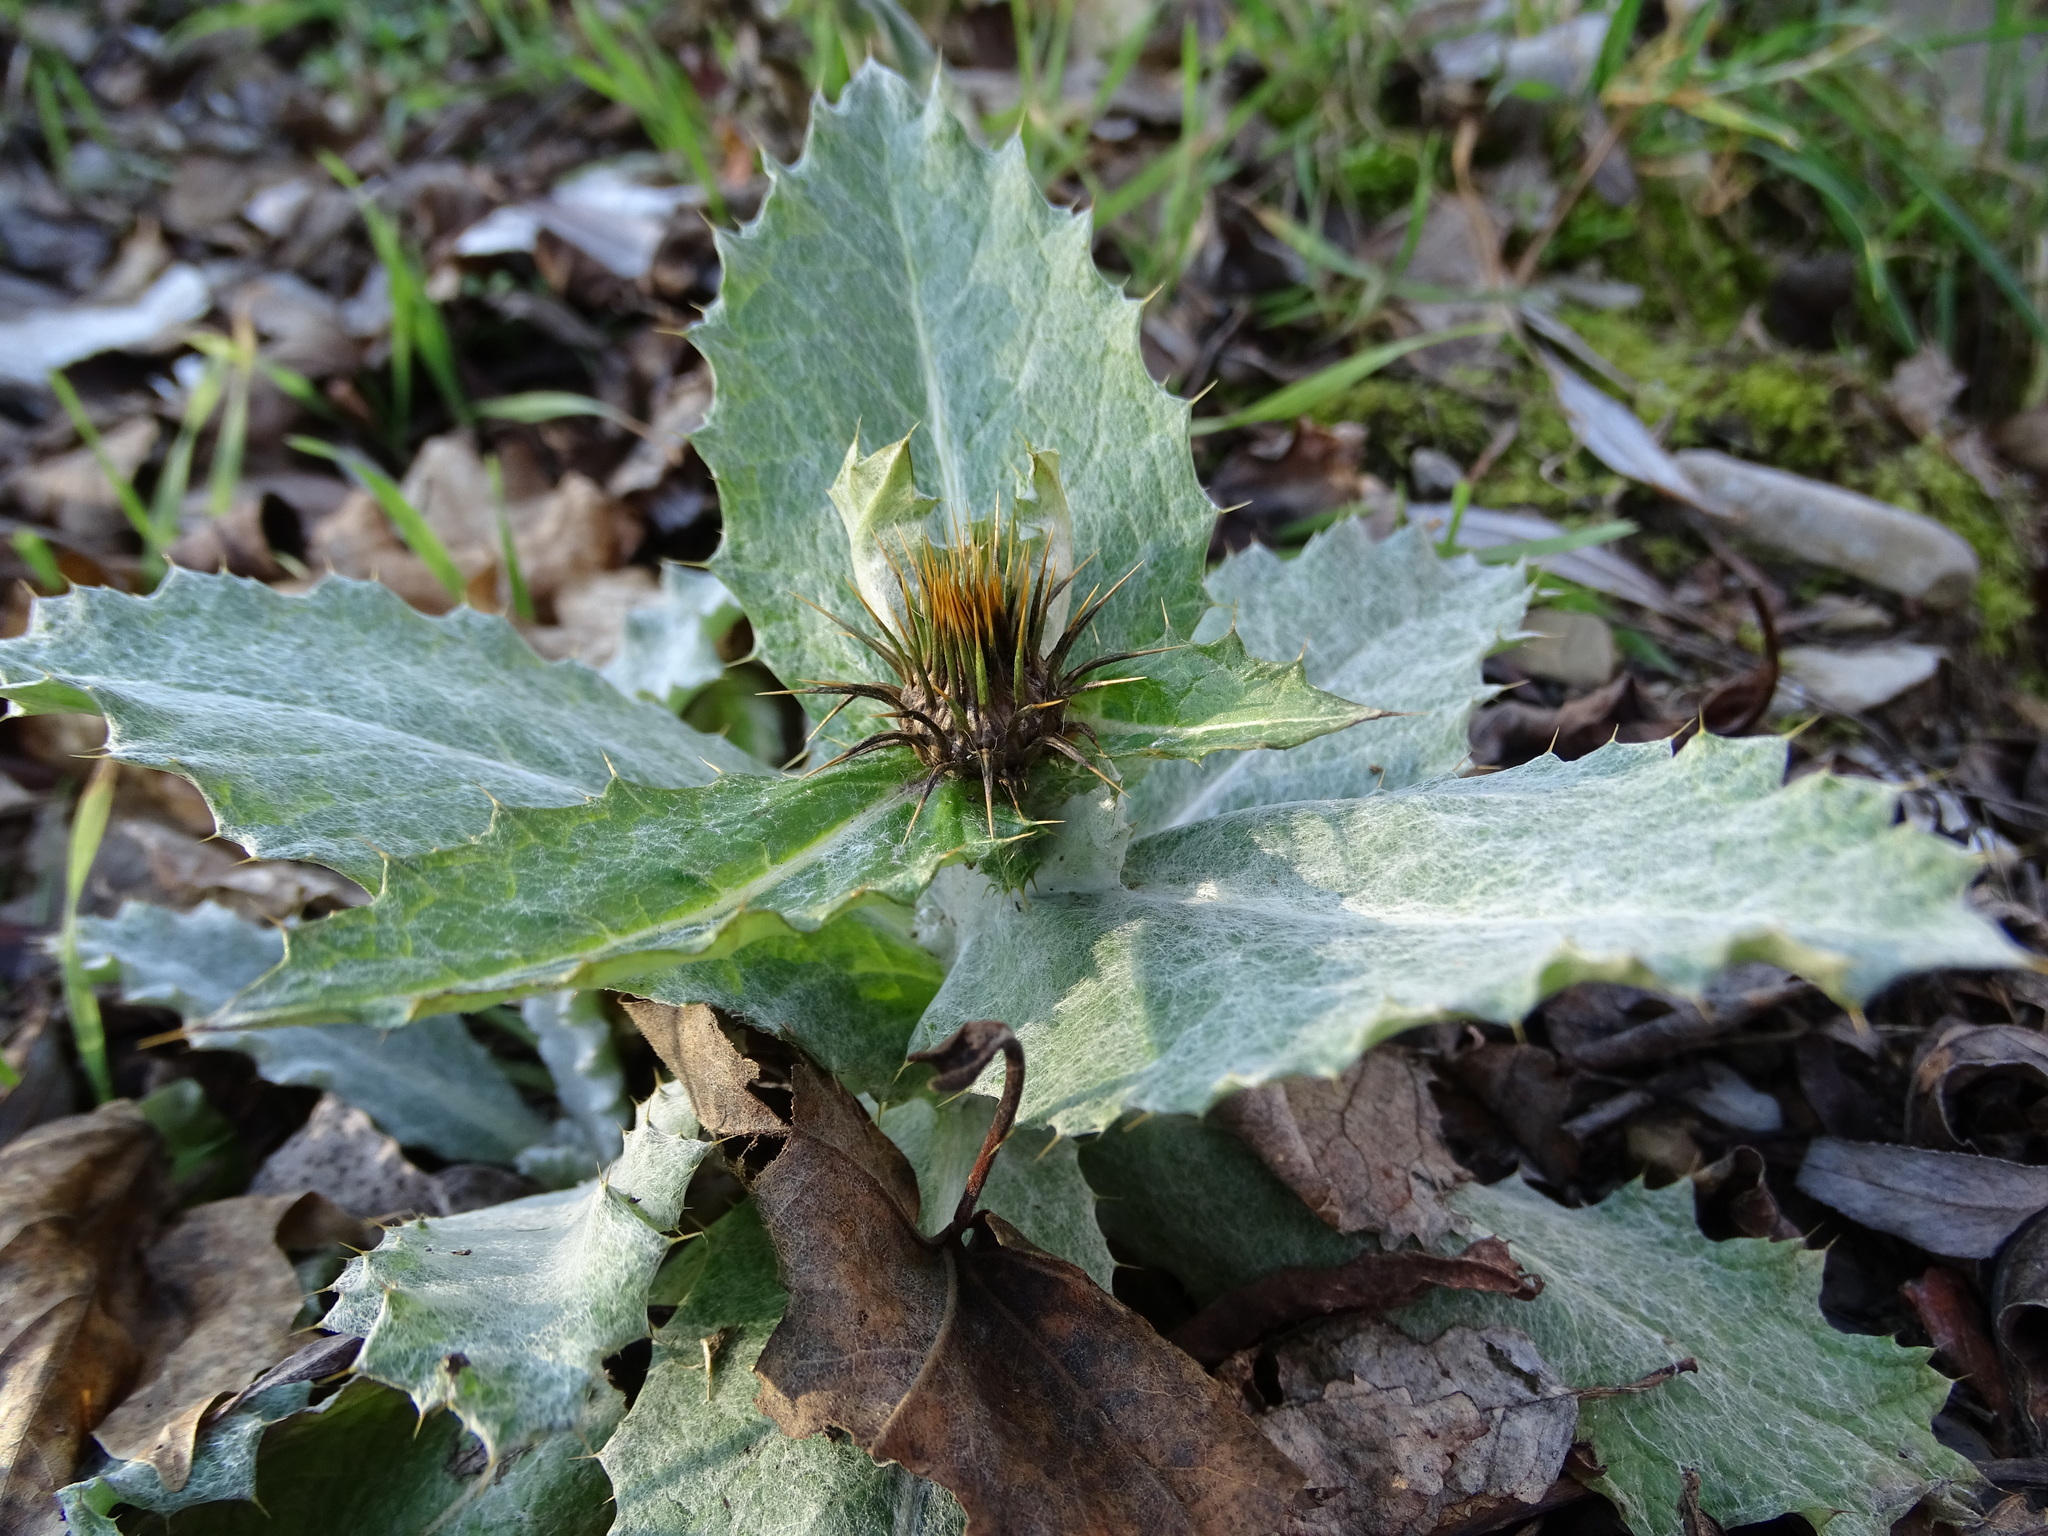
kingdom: Plantae
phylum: Tracheophyta
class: Magnoliopsida
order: Asterales
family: Asteraceae
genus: Onopordum
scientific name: Onopordum acanthium
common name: Scotch thistle
